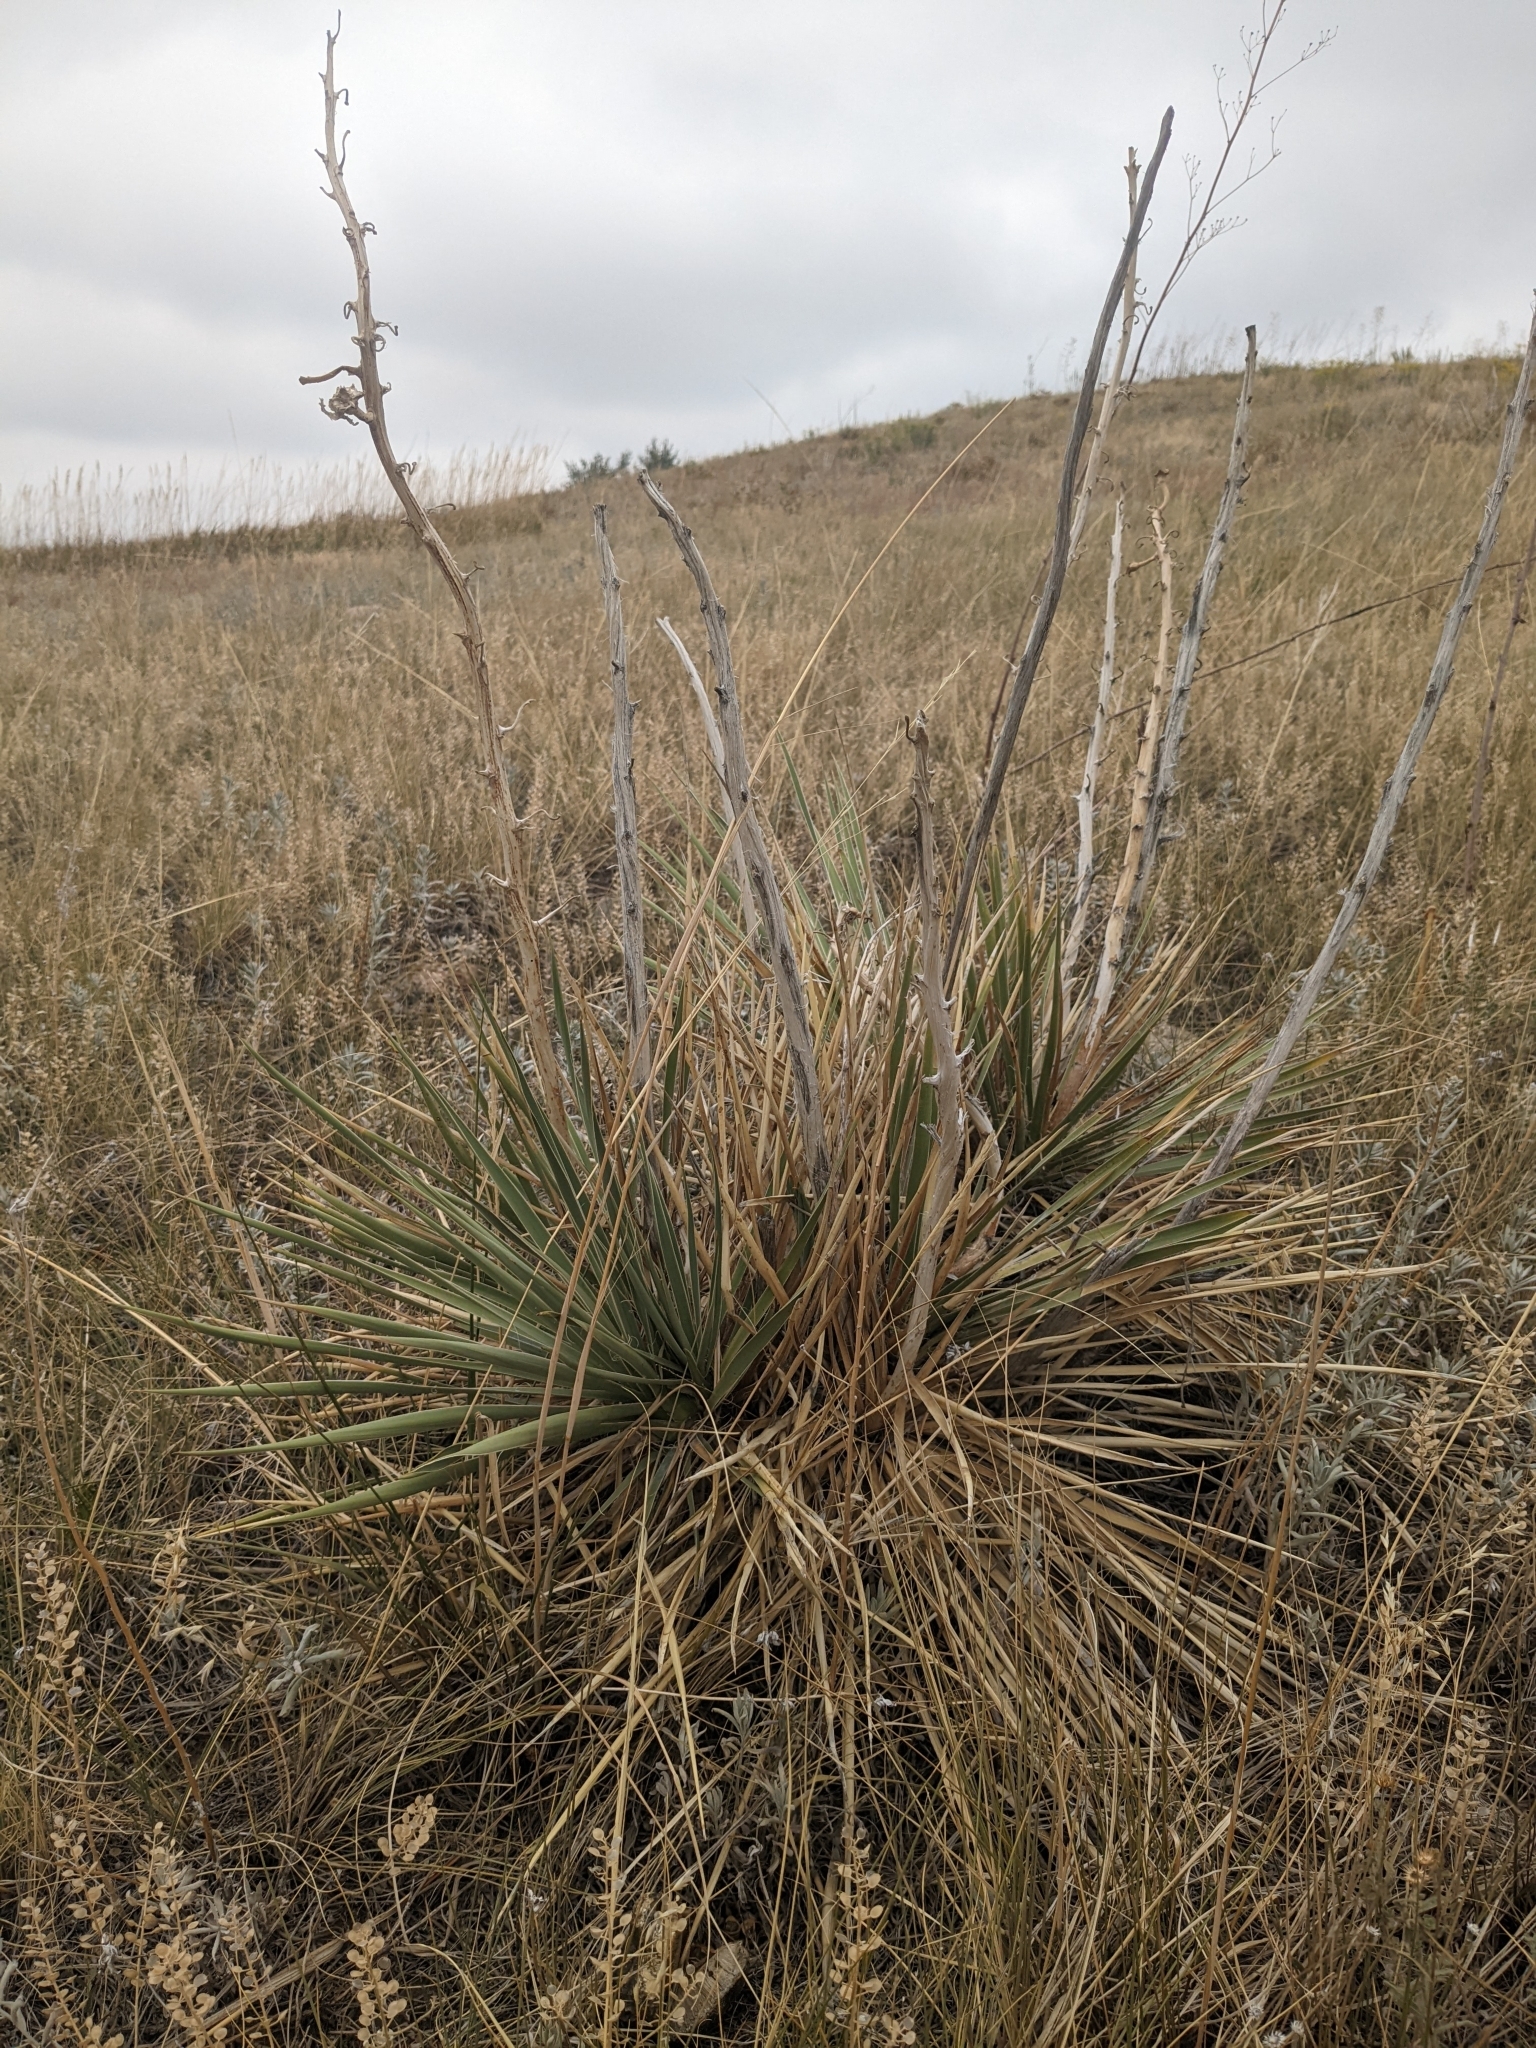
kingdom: Plantae
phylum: Tracheophyta
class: Liliopsida
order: Asparagales
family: Asparagaceae
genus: Yucca
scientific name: Yucca glauca
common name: Great plains yucca
